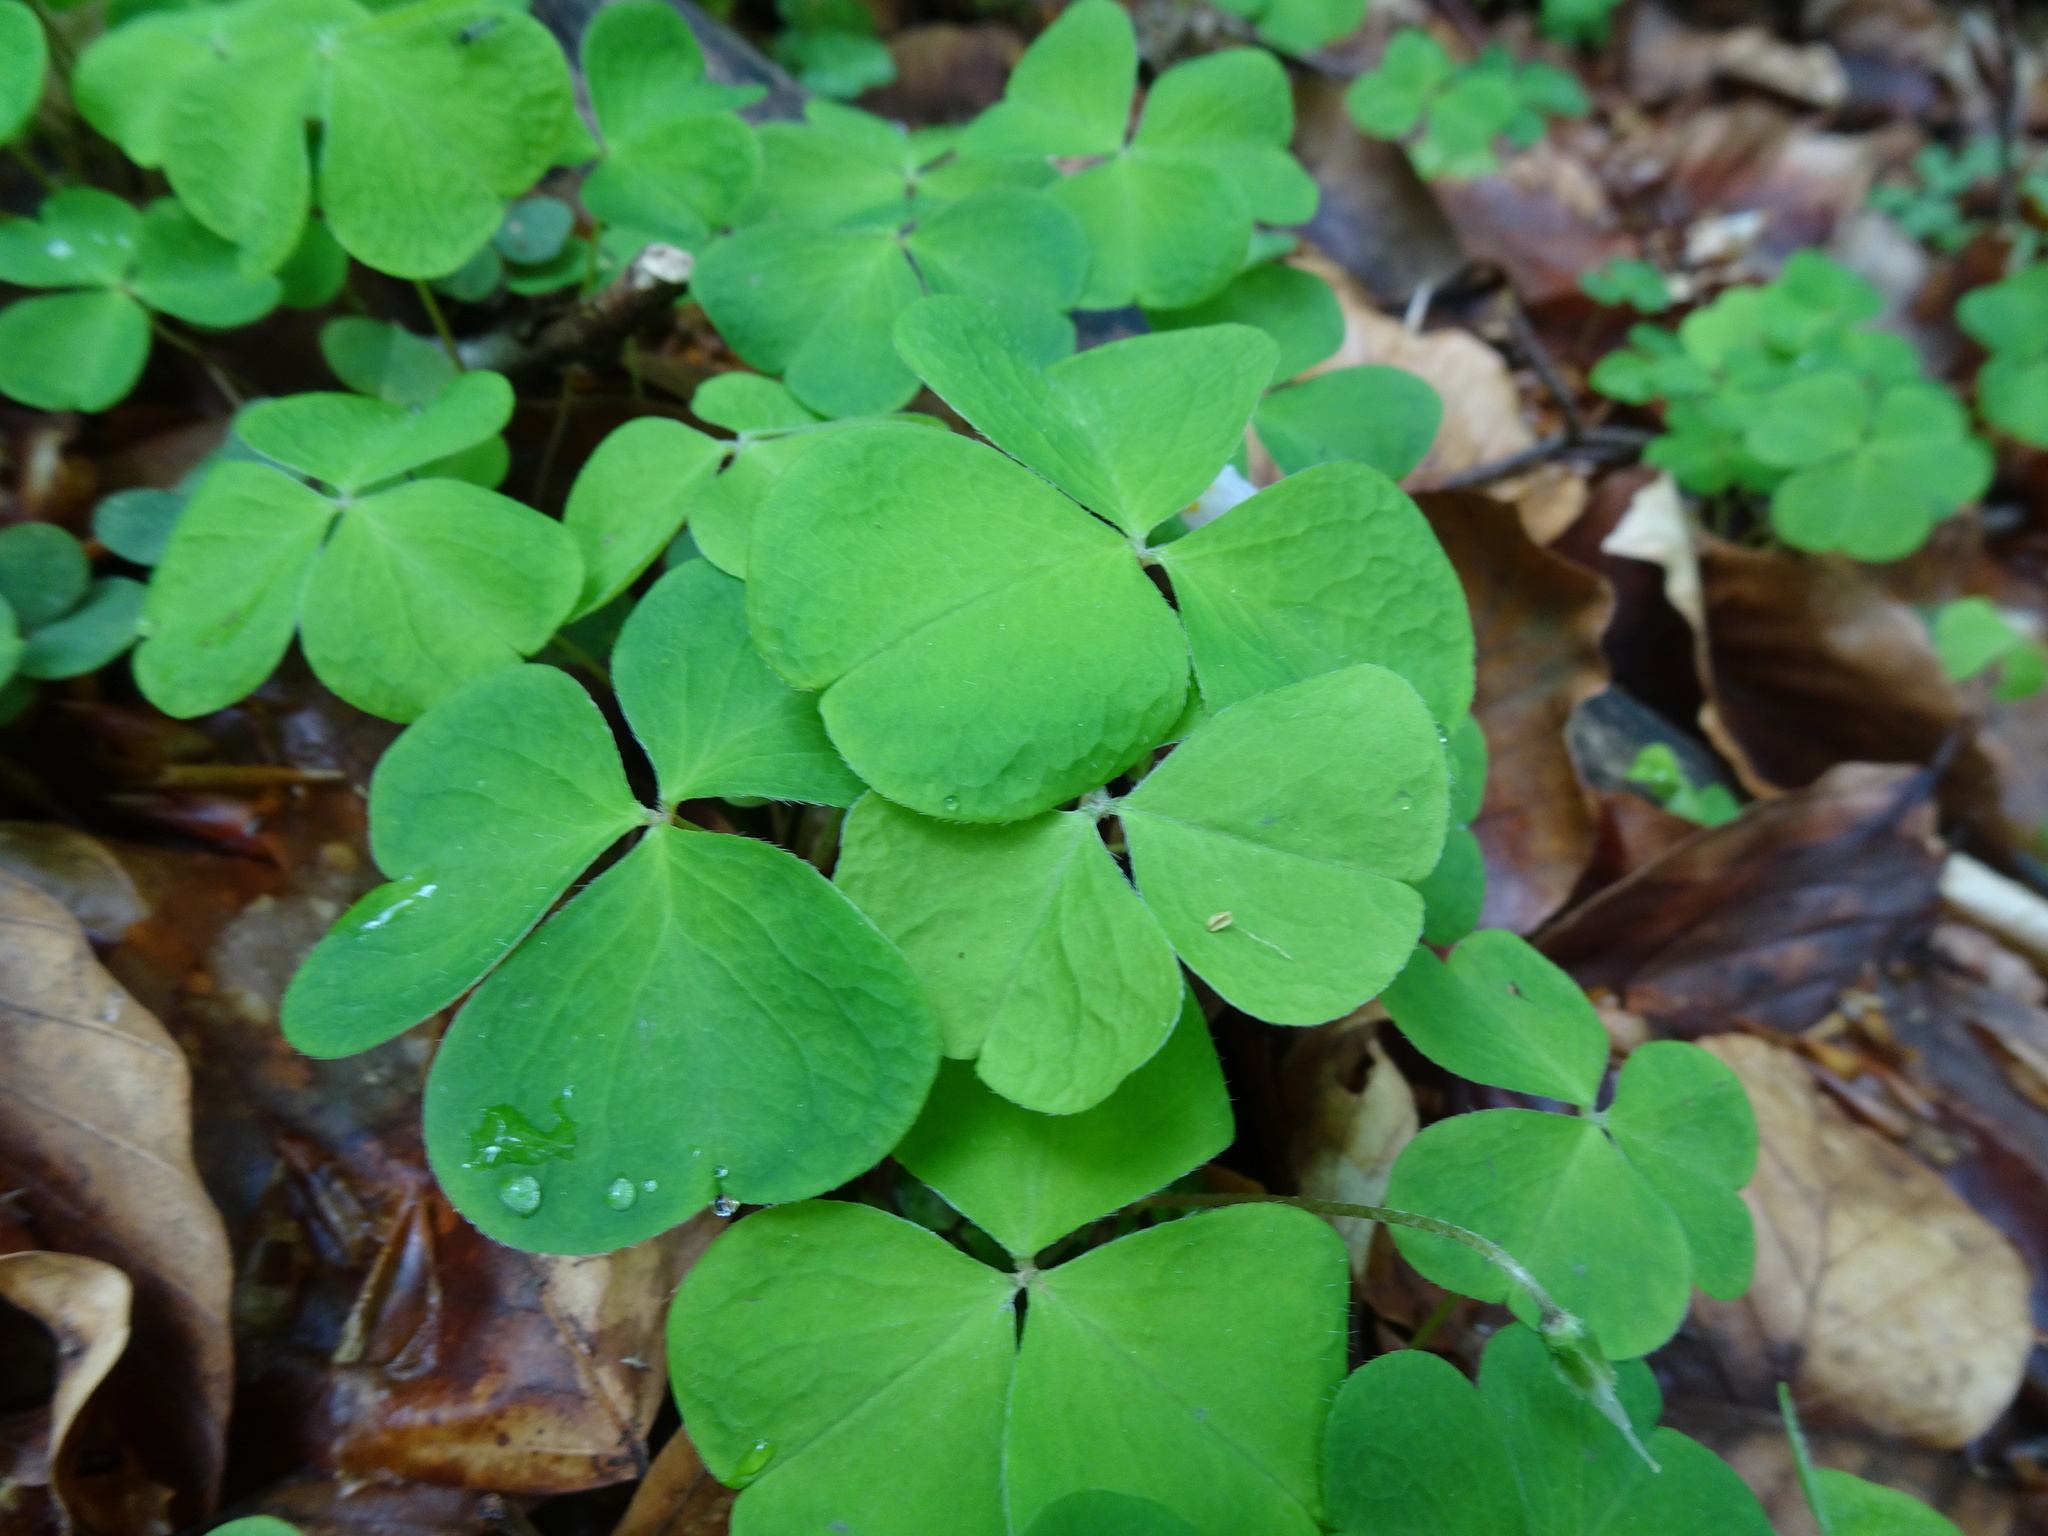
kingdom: Plantae
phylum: Tracheophyta
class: Magnoliopsida
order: Oxalidales
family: Oxalidaceae
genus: Oxalis
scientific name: Oxalis acetosella
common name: Wood-sorrel
